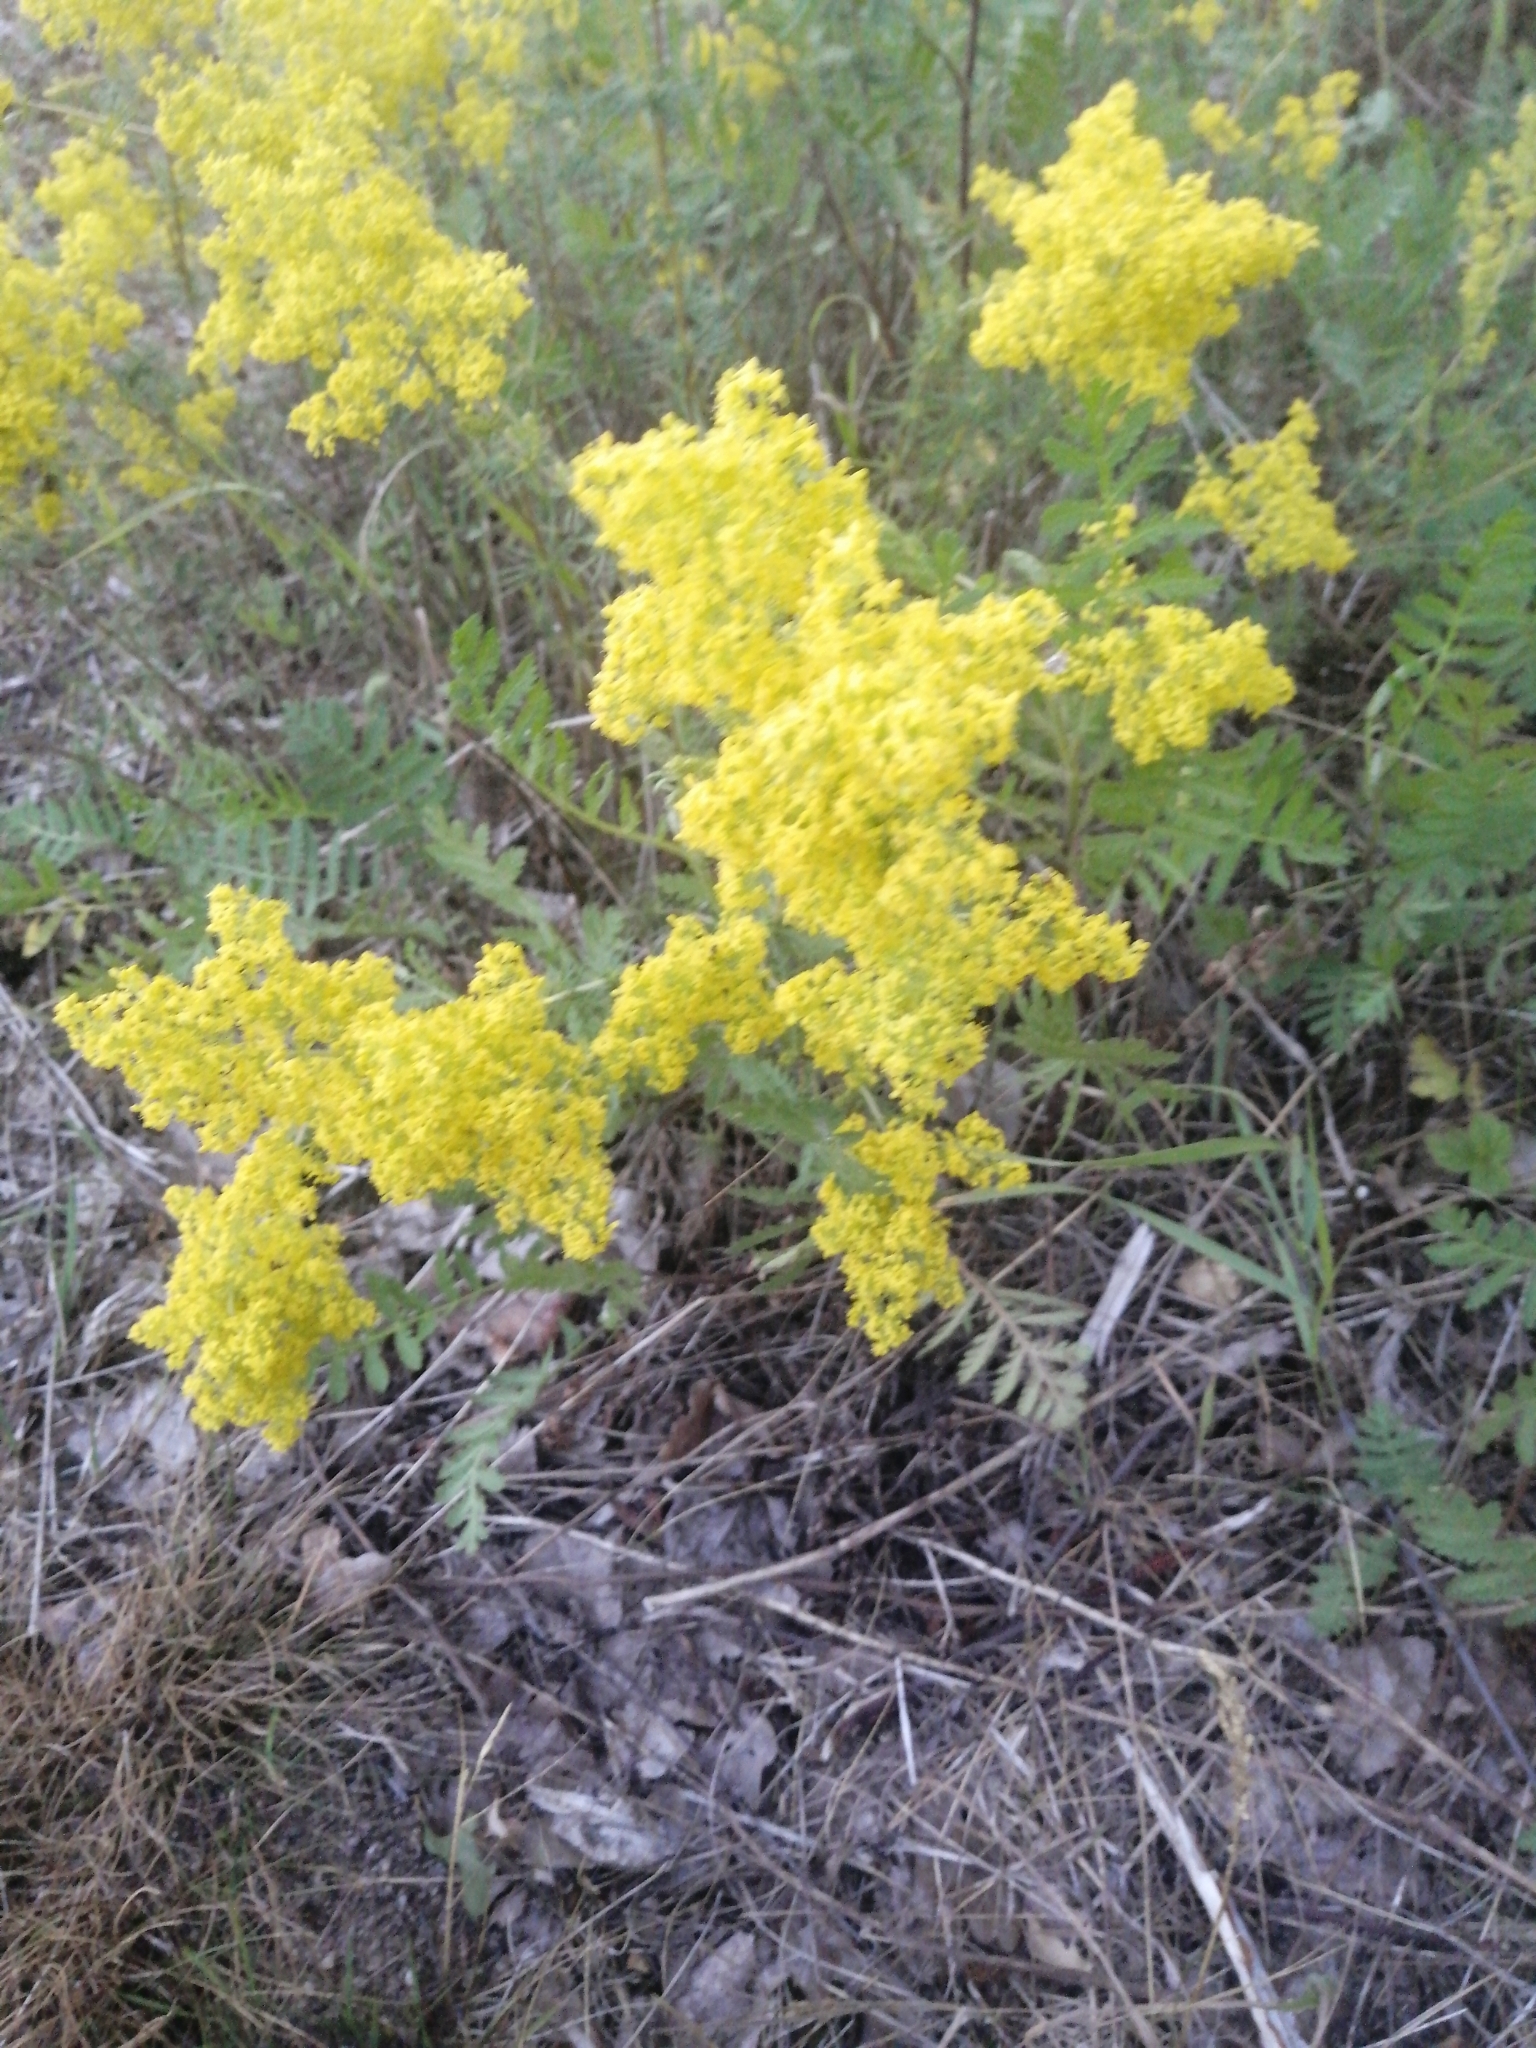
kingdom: Plantae
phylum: Tracheophyta
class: Magnoliopsida
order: Gentianales
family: Rubiaceae
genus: Galium
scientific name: Galium verum
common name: Lady's bedstraw
